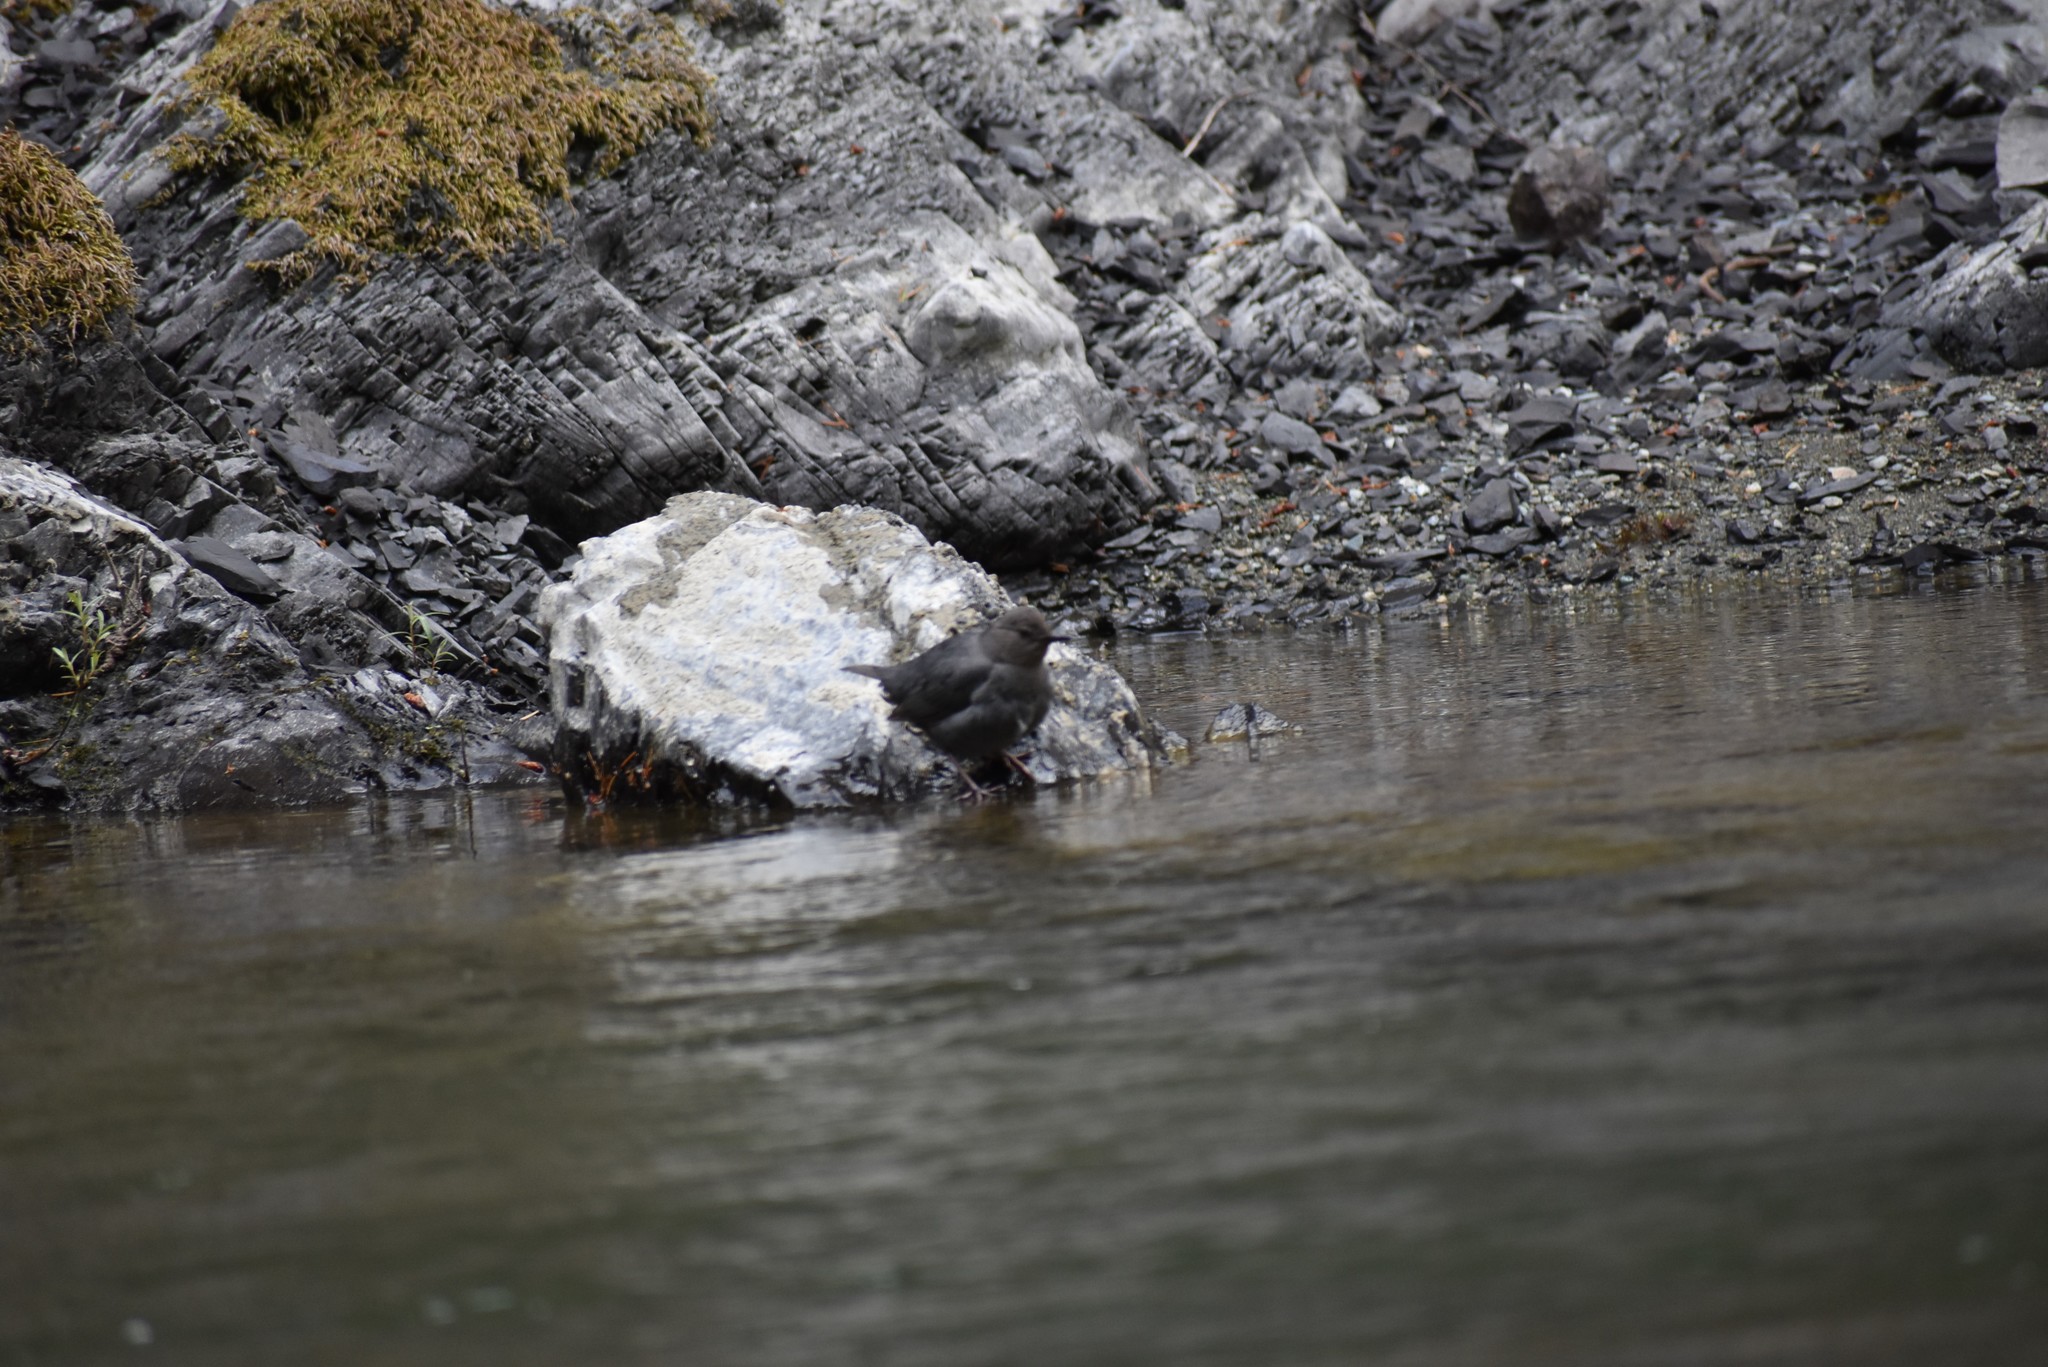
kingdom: Animalia
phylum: Chordata
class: Aves
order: Passeriformes
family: Cinclidae
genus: Cinclus
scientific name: Cinclus mexicanus
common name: American dipper
